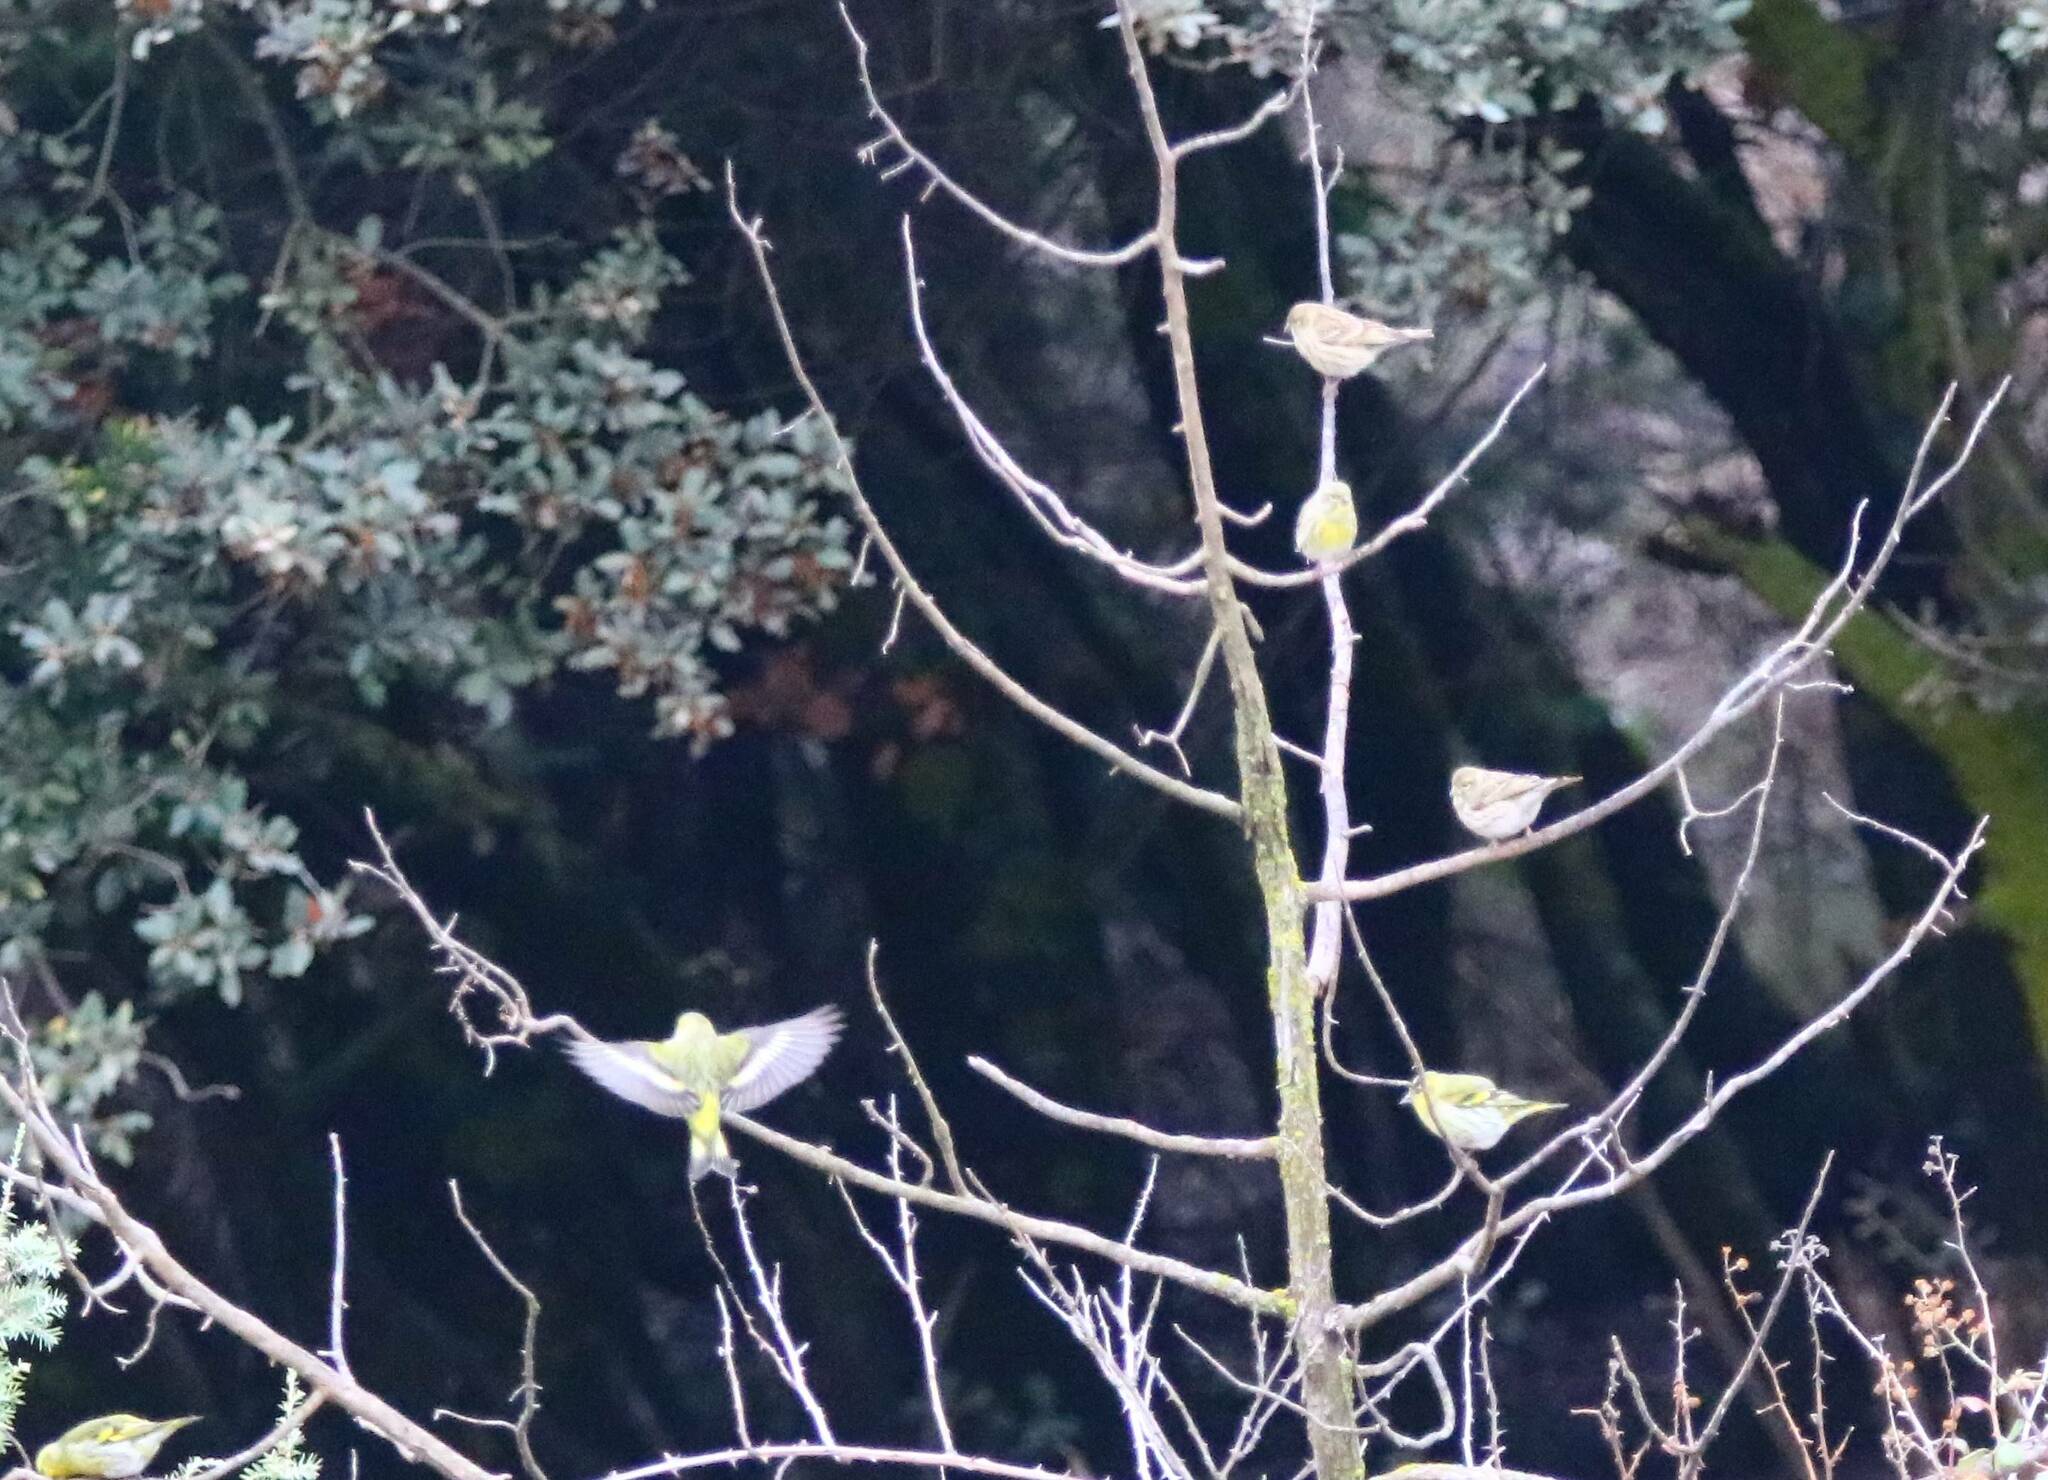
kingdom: Animalia
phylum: Chordata
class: Aves
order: Passeriformes
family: Fringillidae
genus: Spinus
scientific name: Spinus spinus
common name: Eurasian siskin
